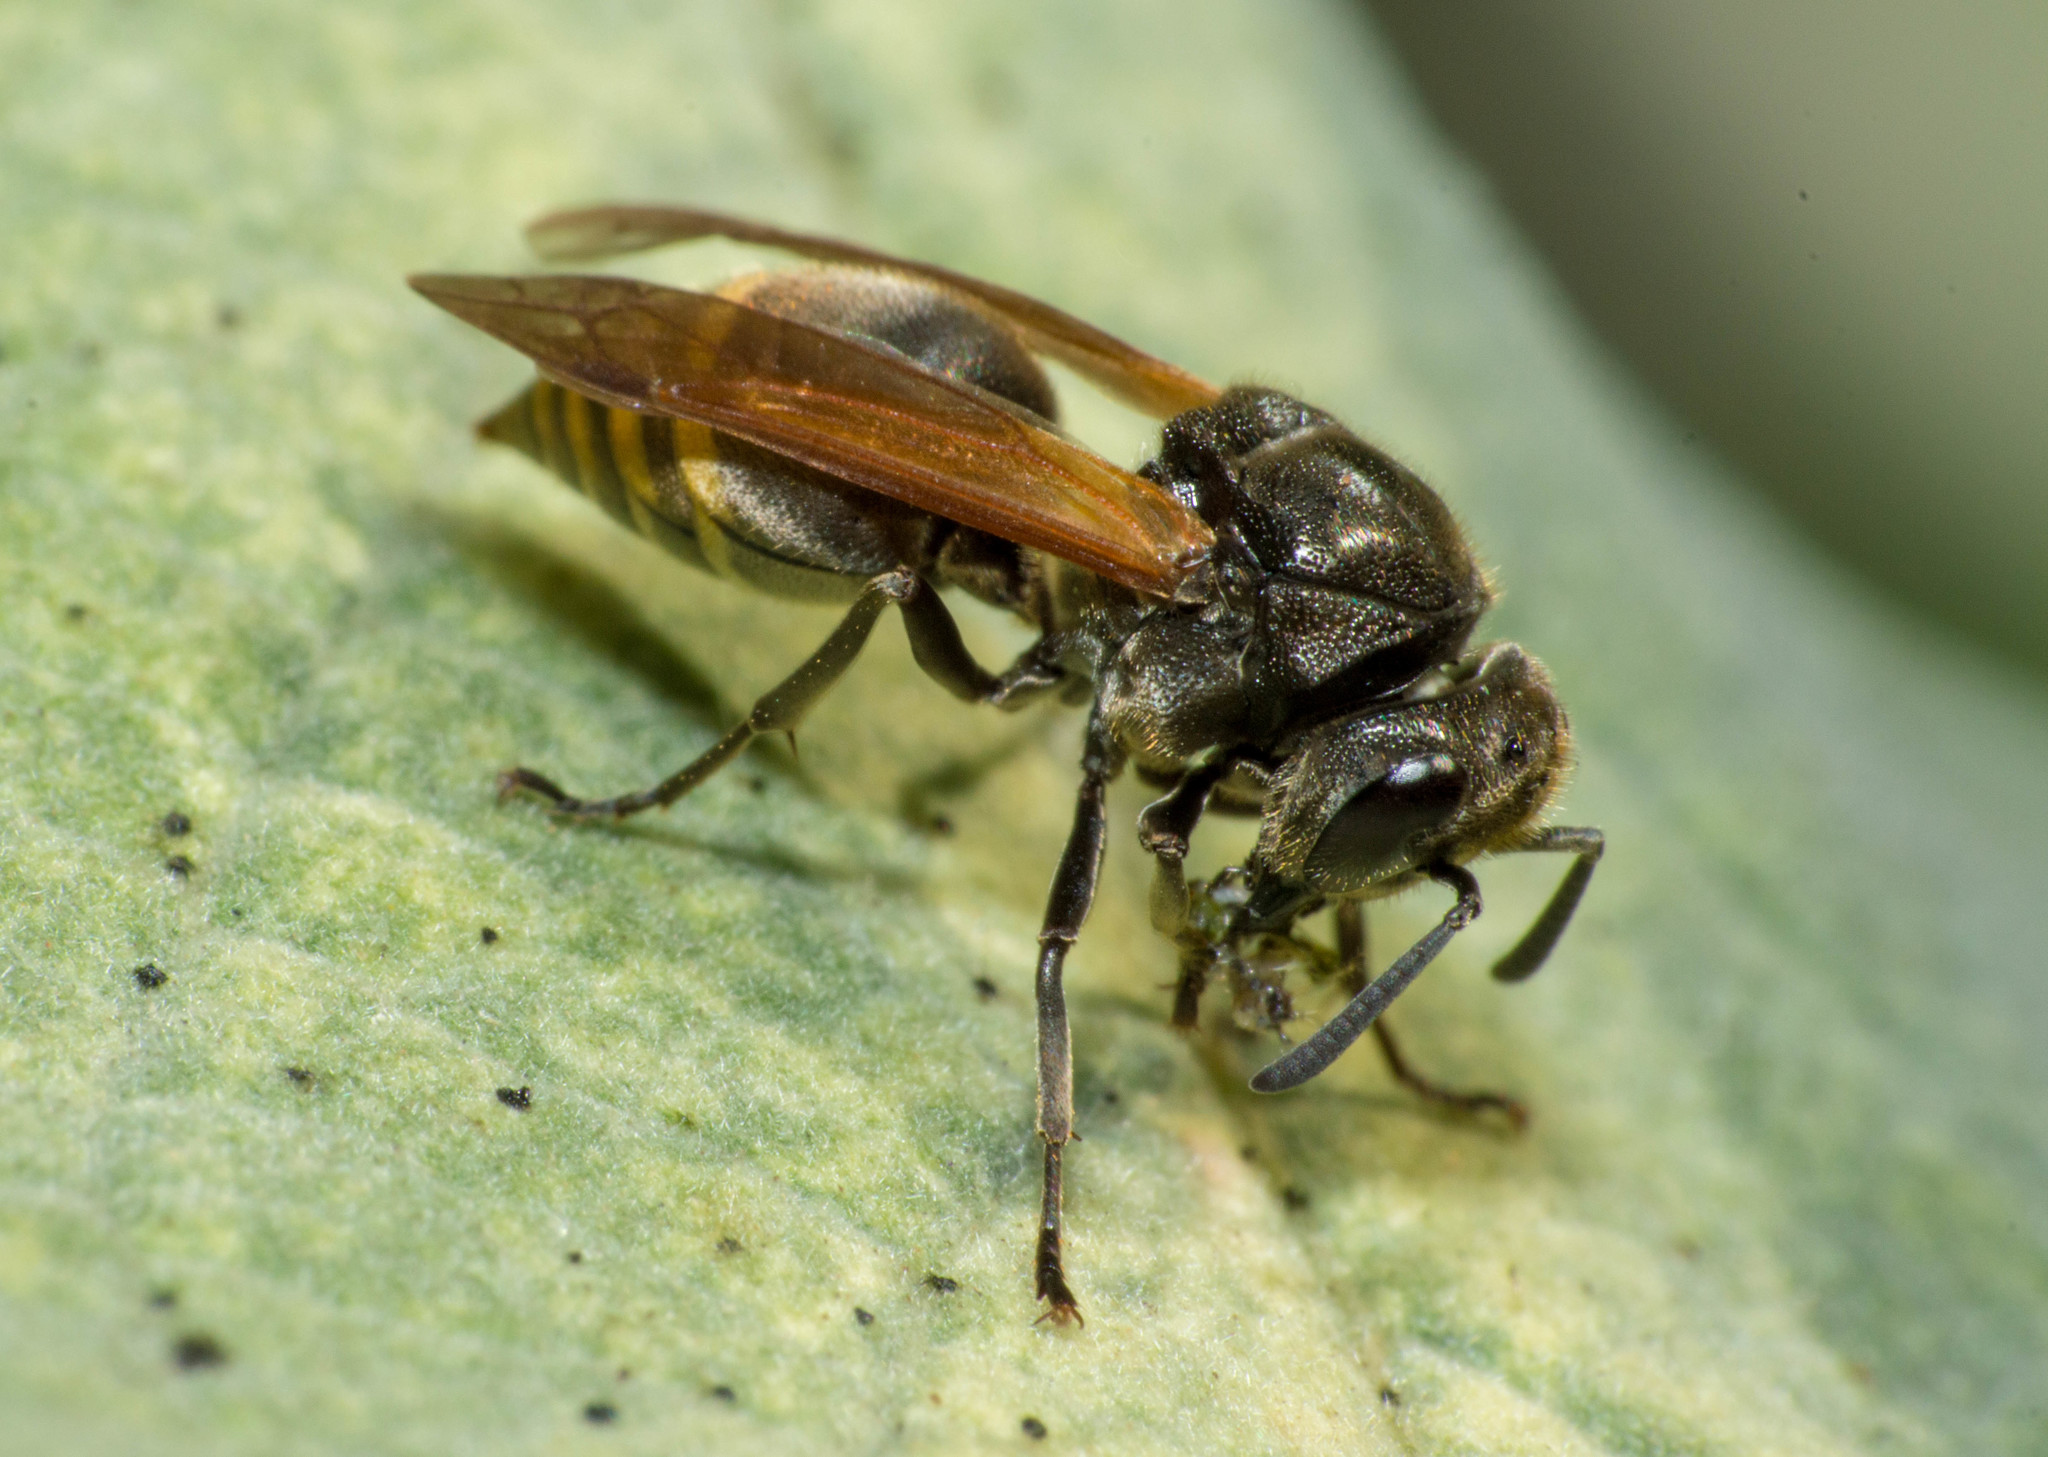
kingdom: Animalia
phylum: Arthropoda
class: Insecta
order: Hymenoptera
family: Vespidae
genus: Brachygastra
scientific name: Brachygastra lecheguana
